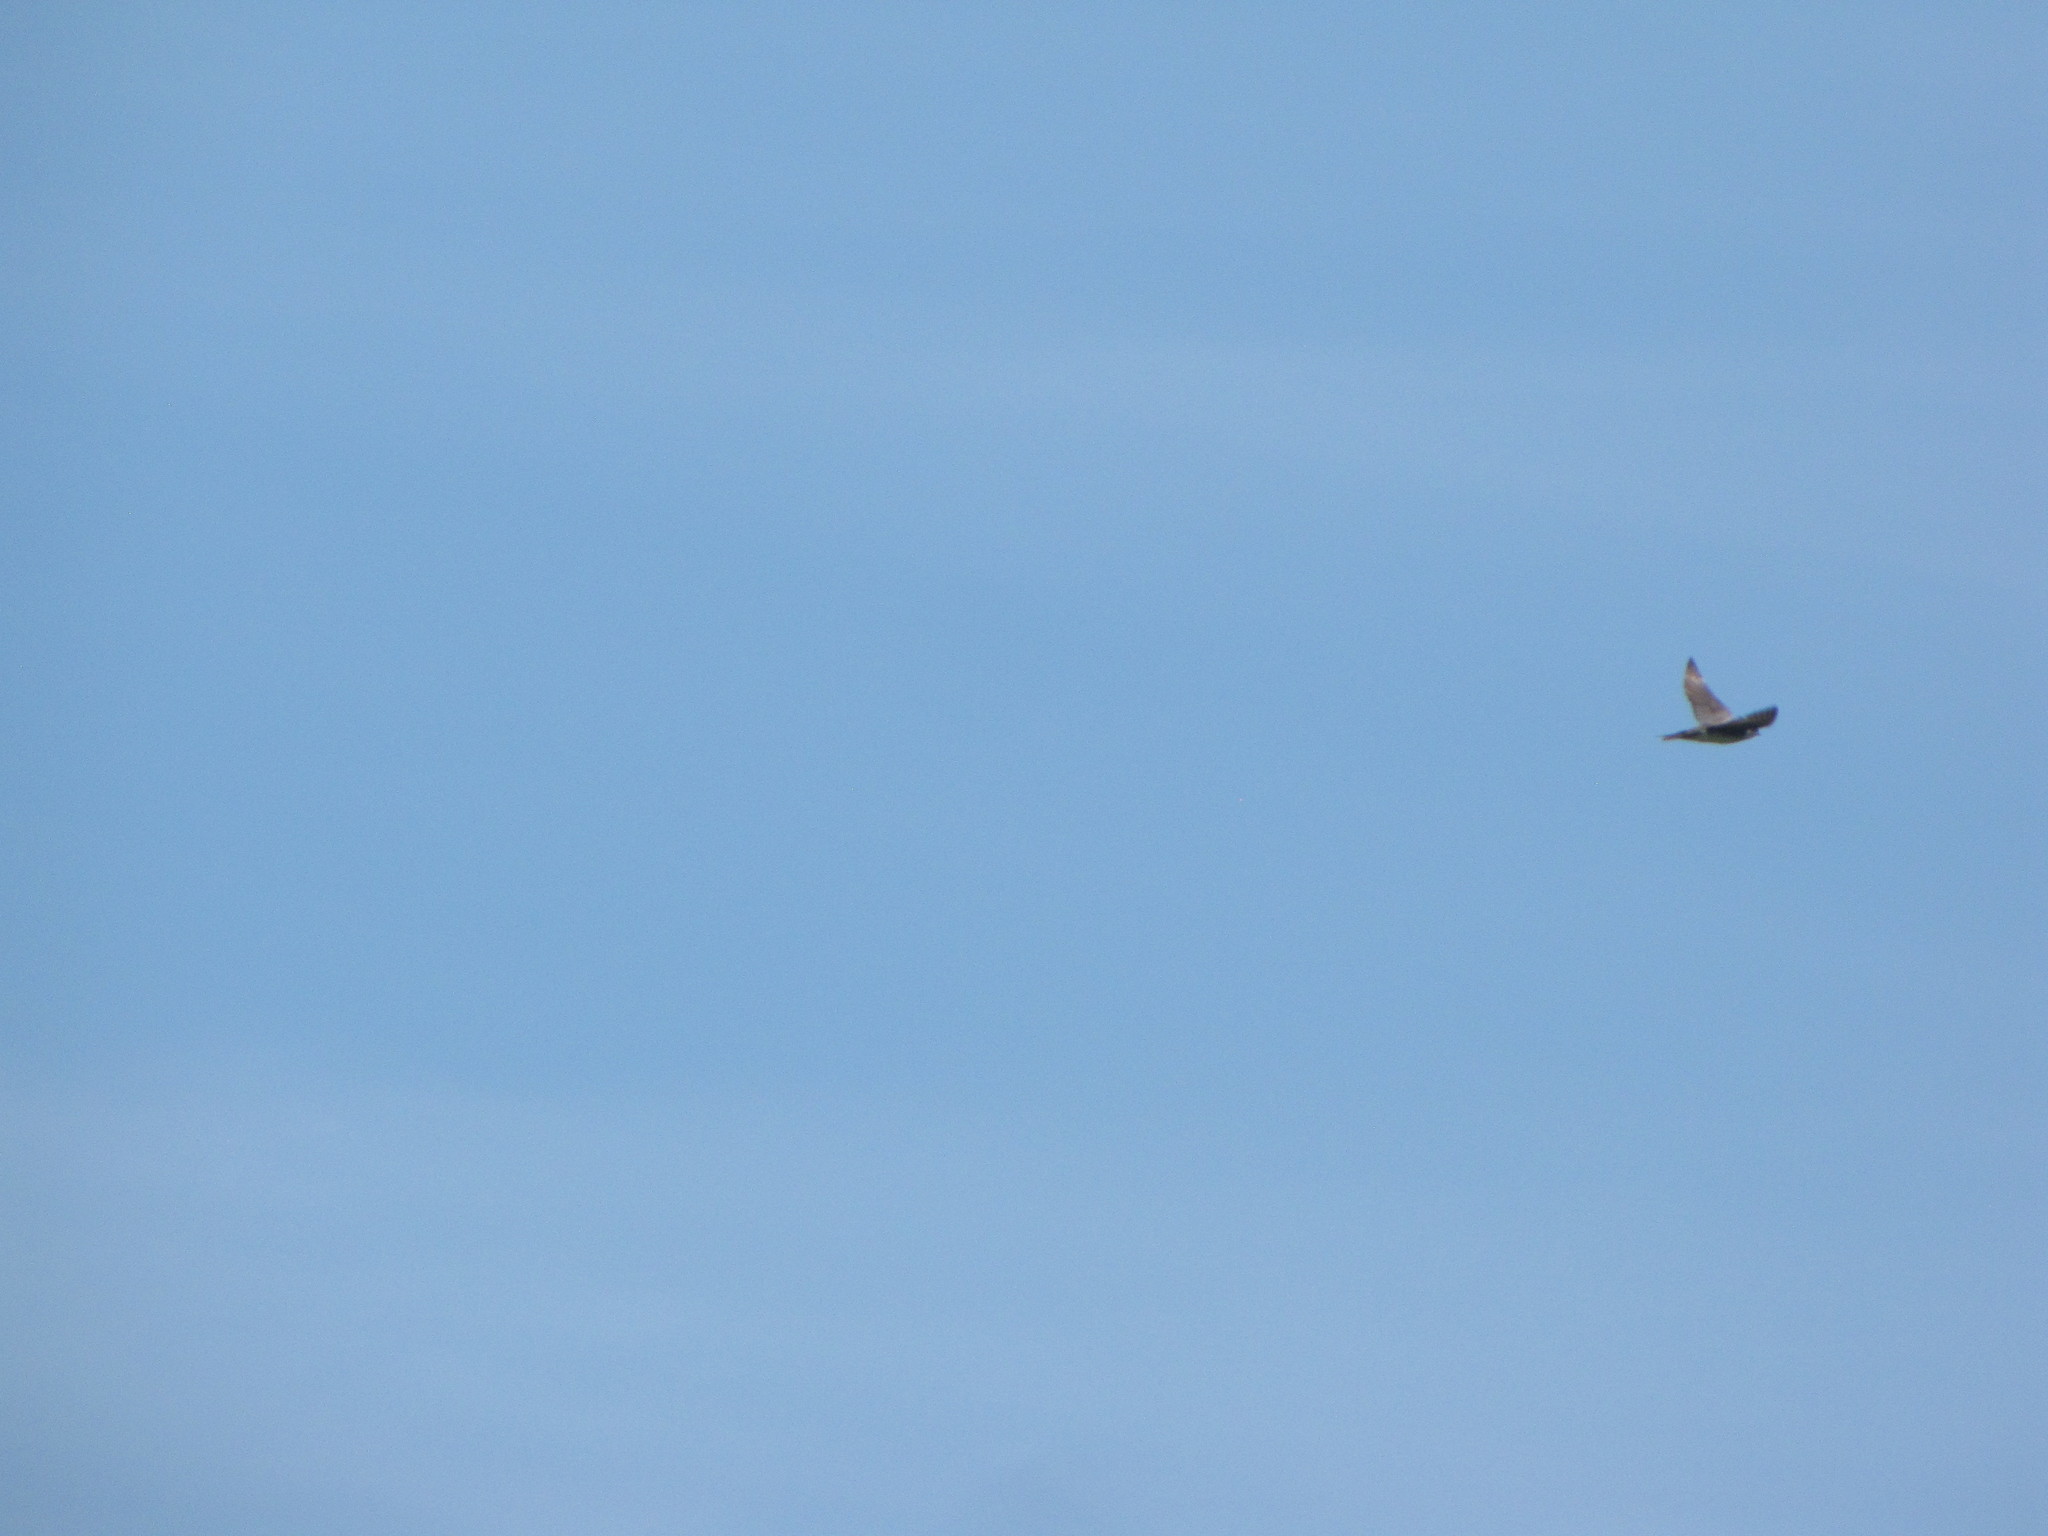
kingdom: Animalia
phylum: Chordata
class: Aves
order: Passeriformes
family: Hirundinidae
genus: Tachycineta
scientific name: Tachycineta thalassina
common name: Violet-green swallow
